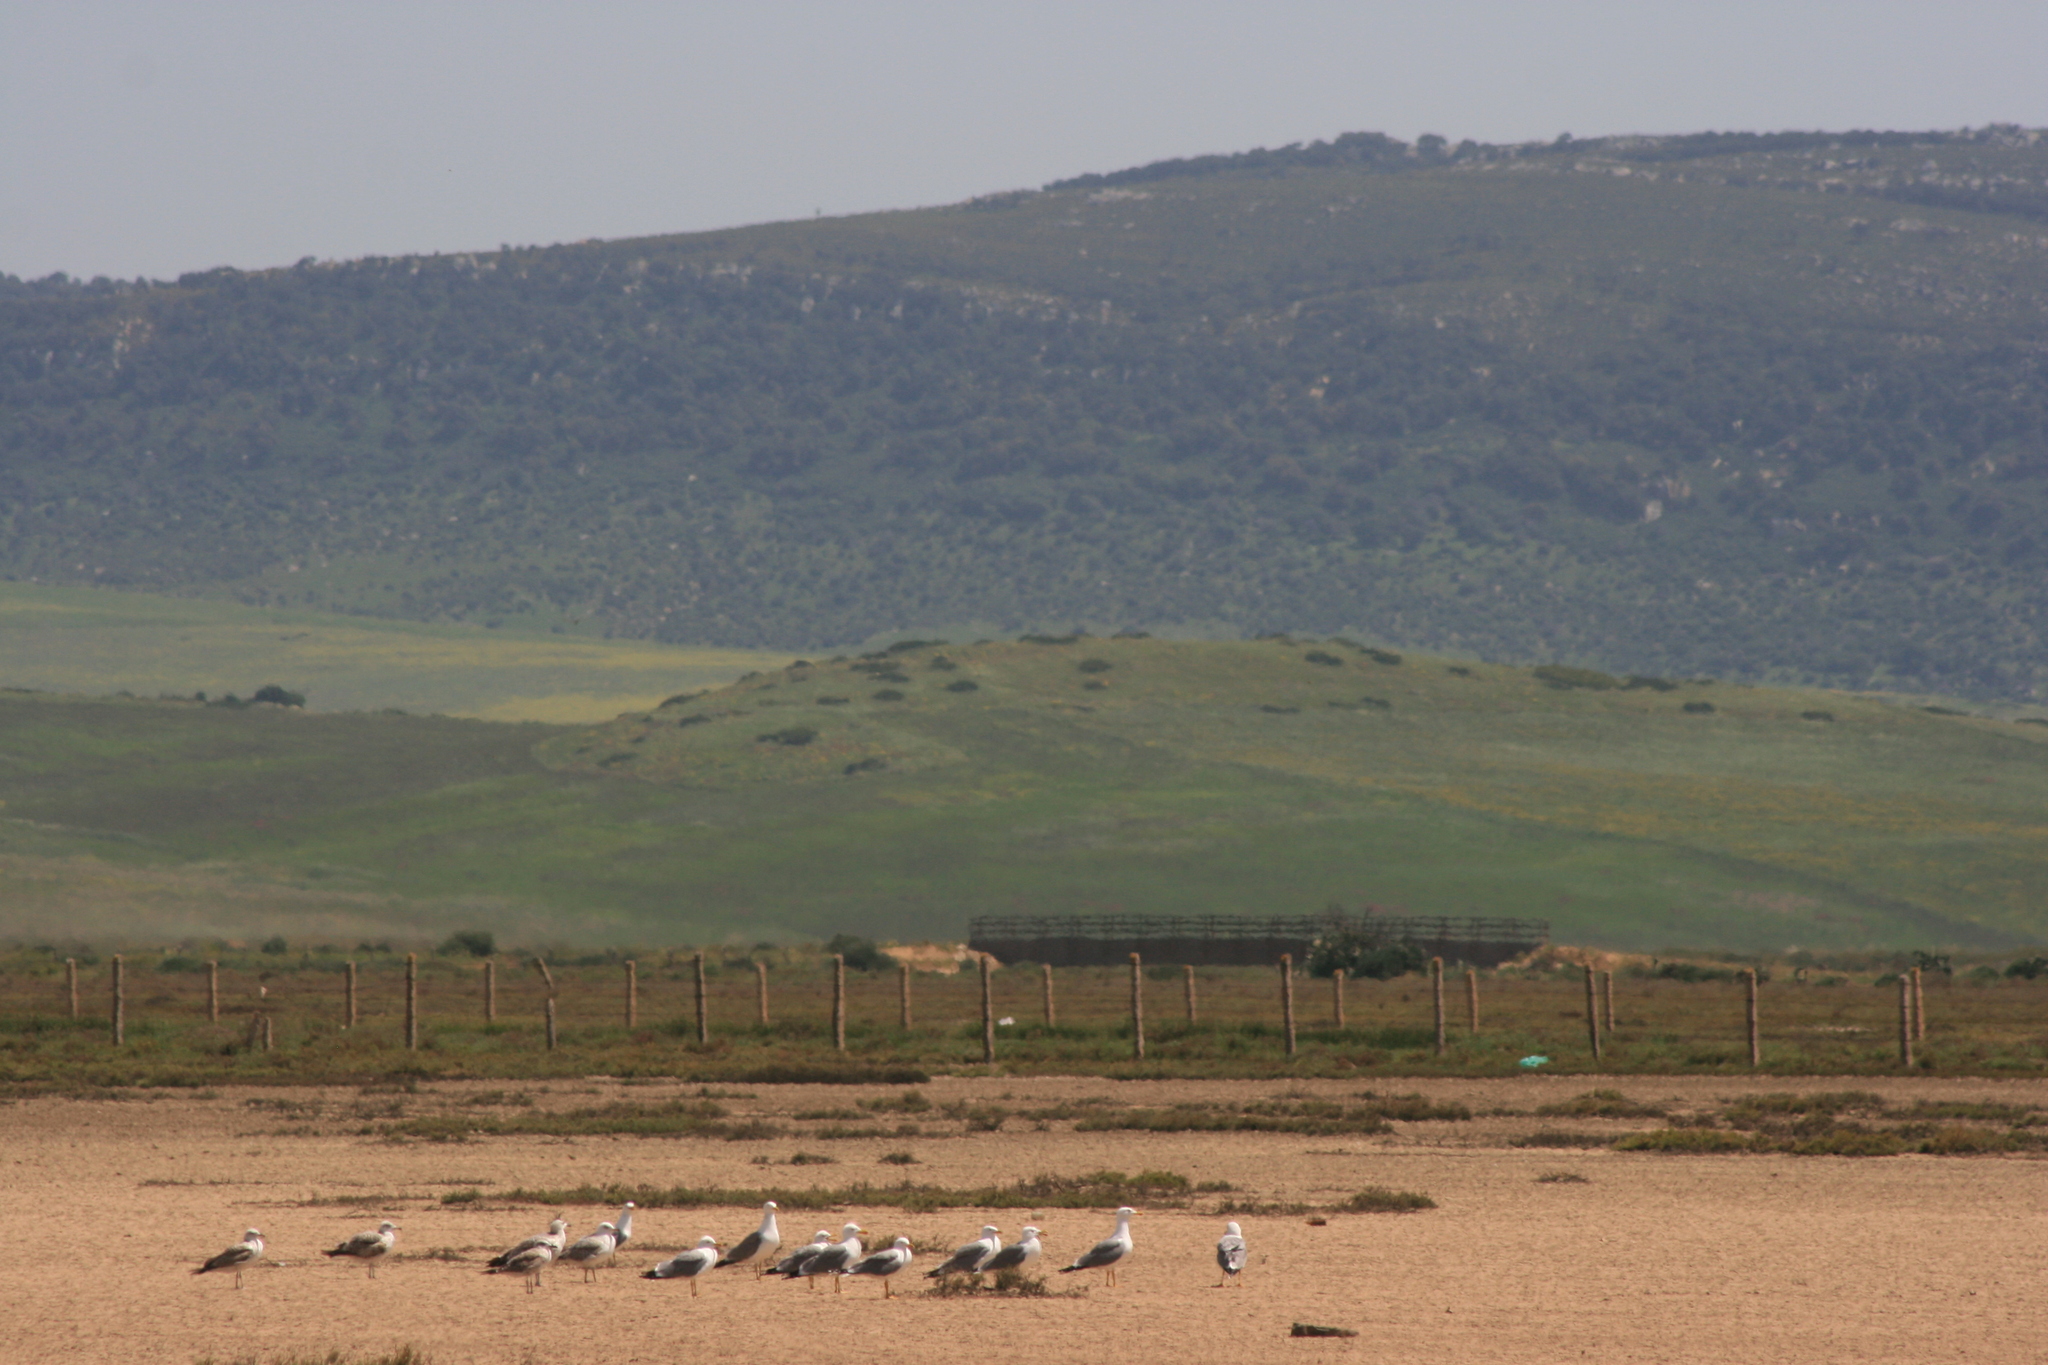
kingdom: Animalia
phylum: Chordata
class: Aves
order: Charadriiformes
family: Laridae
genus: Larus
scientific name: Larus michahellis
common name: Yellow-legged gull
